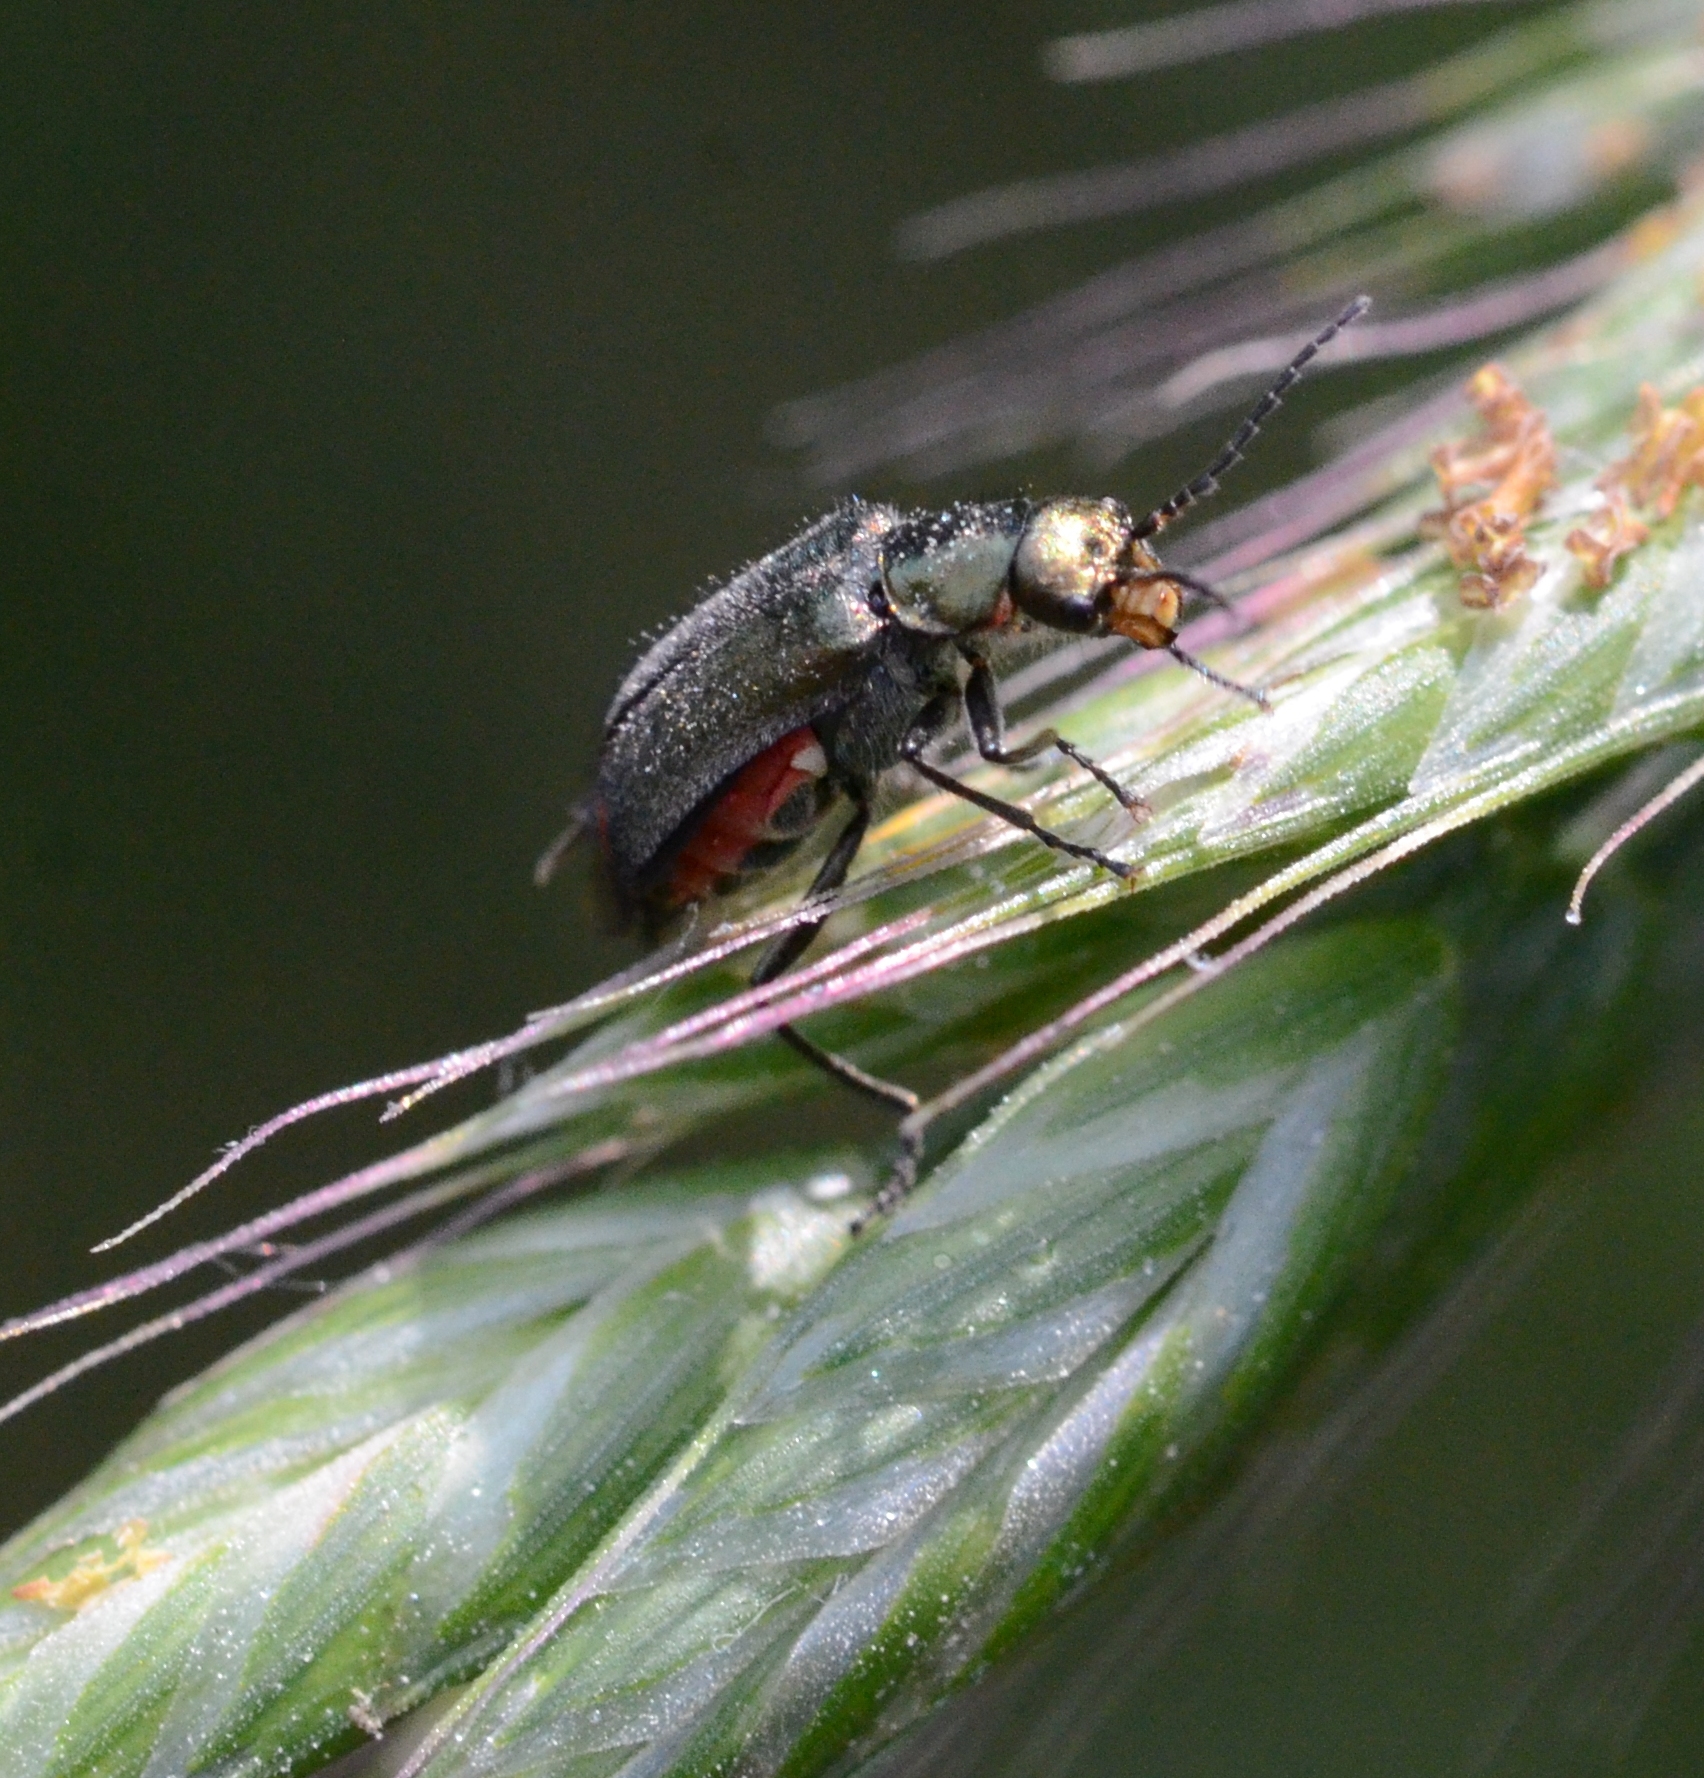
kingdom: Animalia
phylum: Arthropoda
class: Insecta
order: Coleoptera
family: Melyridae
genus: Malachius
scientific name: Malachius bipustulatus
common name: Malachite beetle
